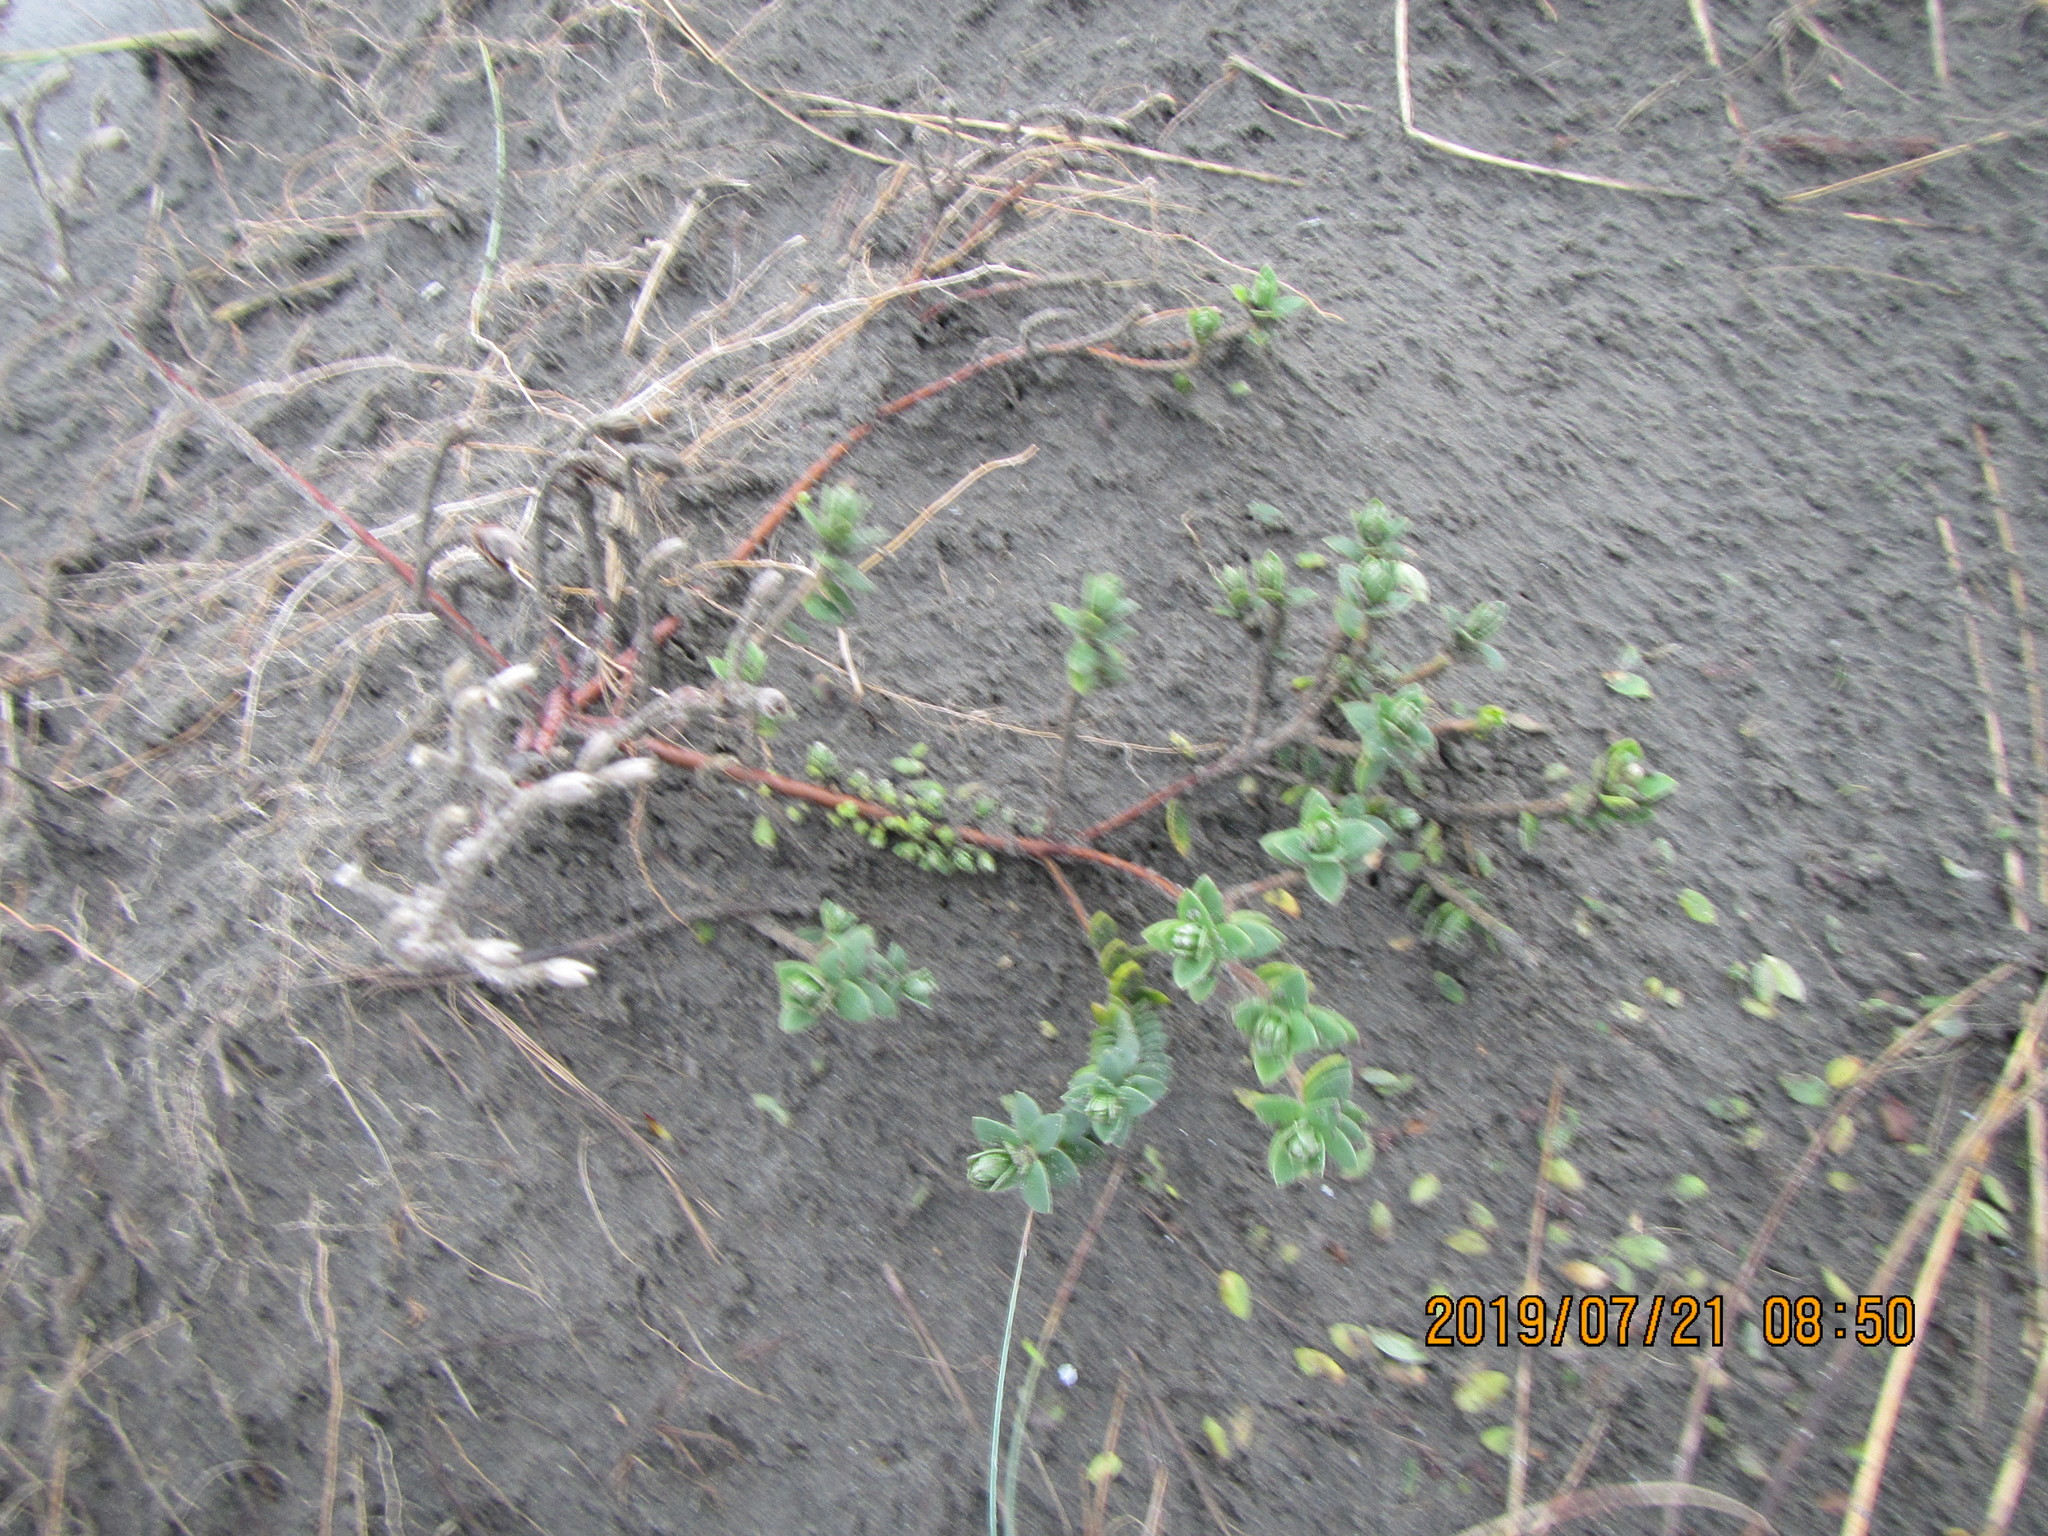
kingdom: Plantae
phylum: Tracheophyta
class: Magnoliopsida
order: Malvales
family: Thymelaeaceae
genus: Pimelea
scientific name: Pimelea villosa
